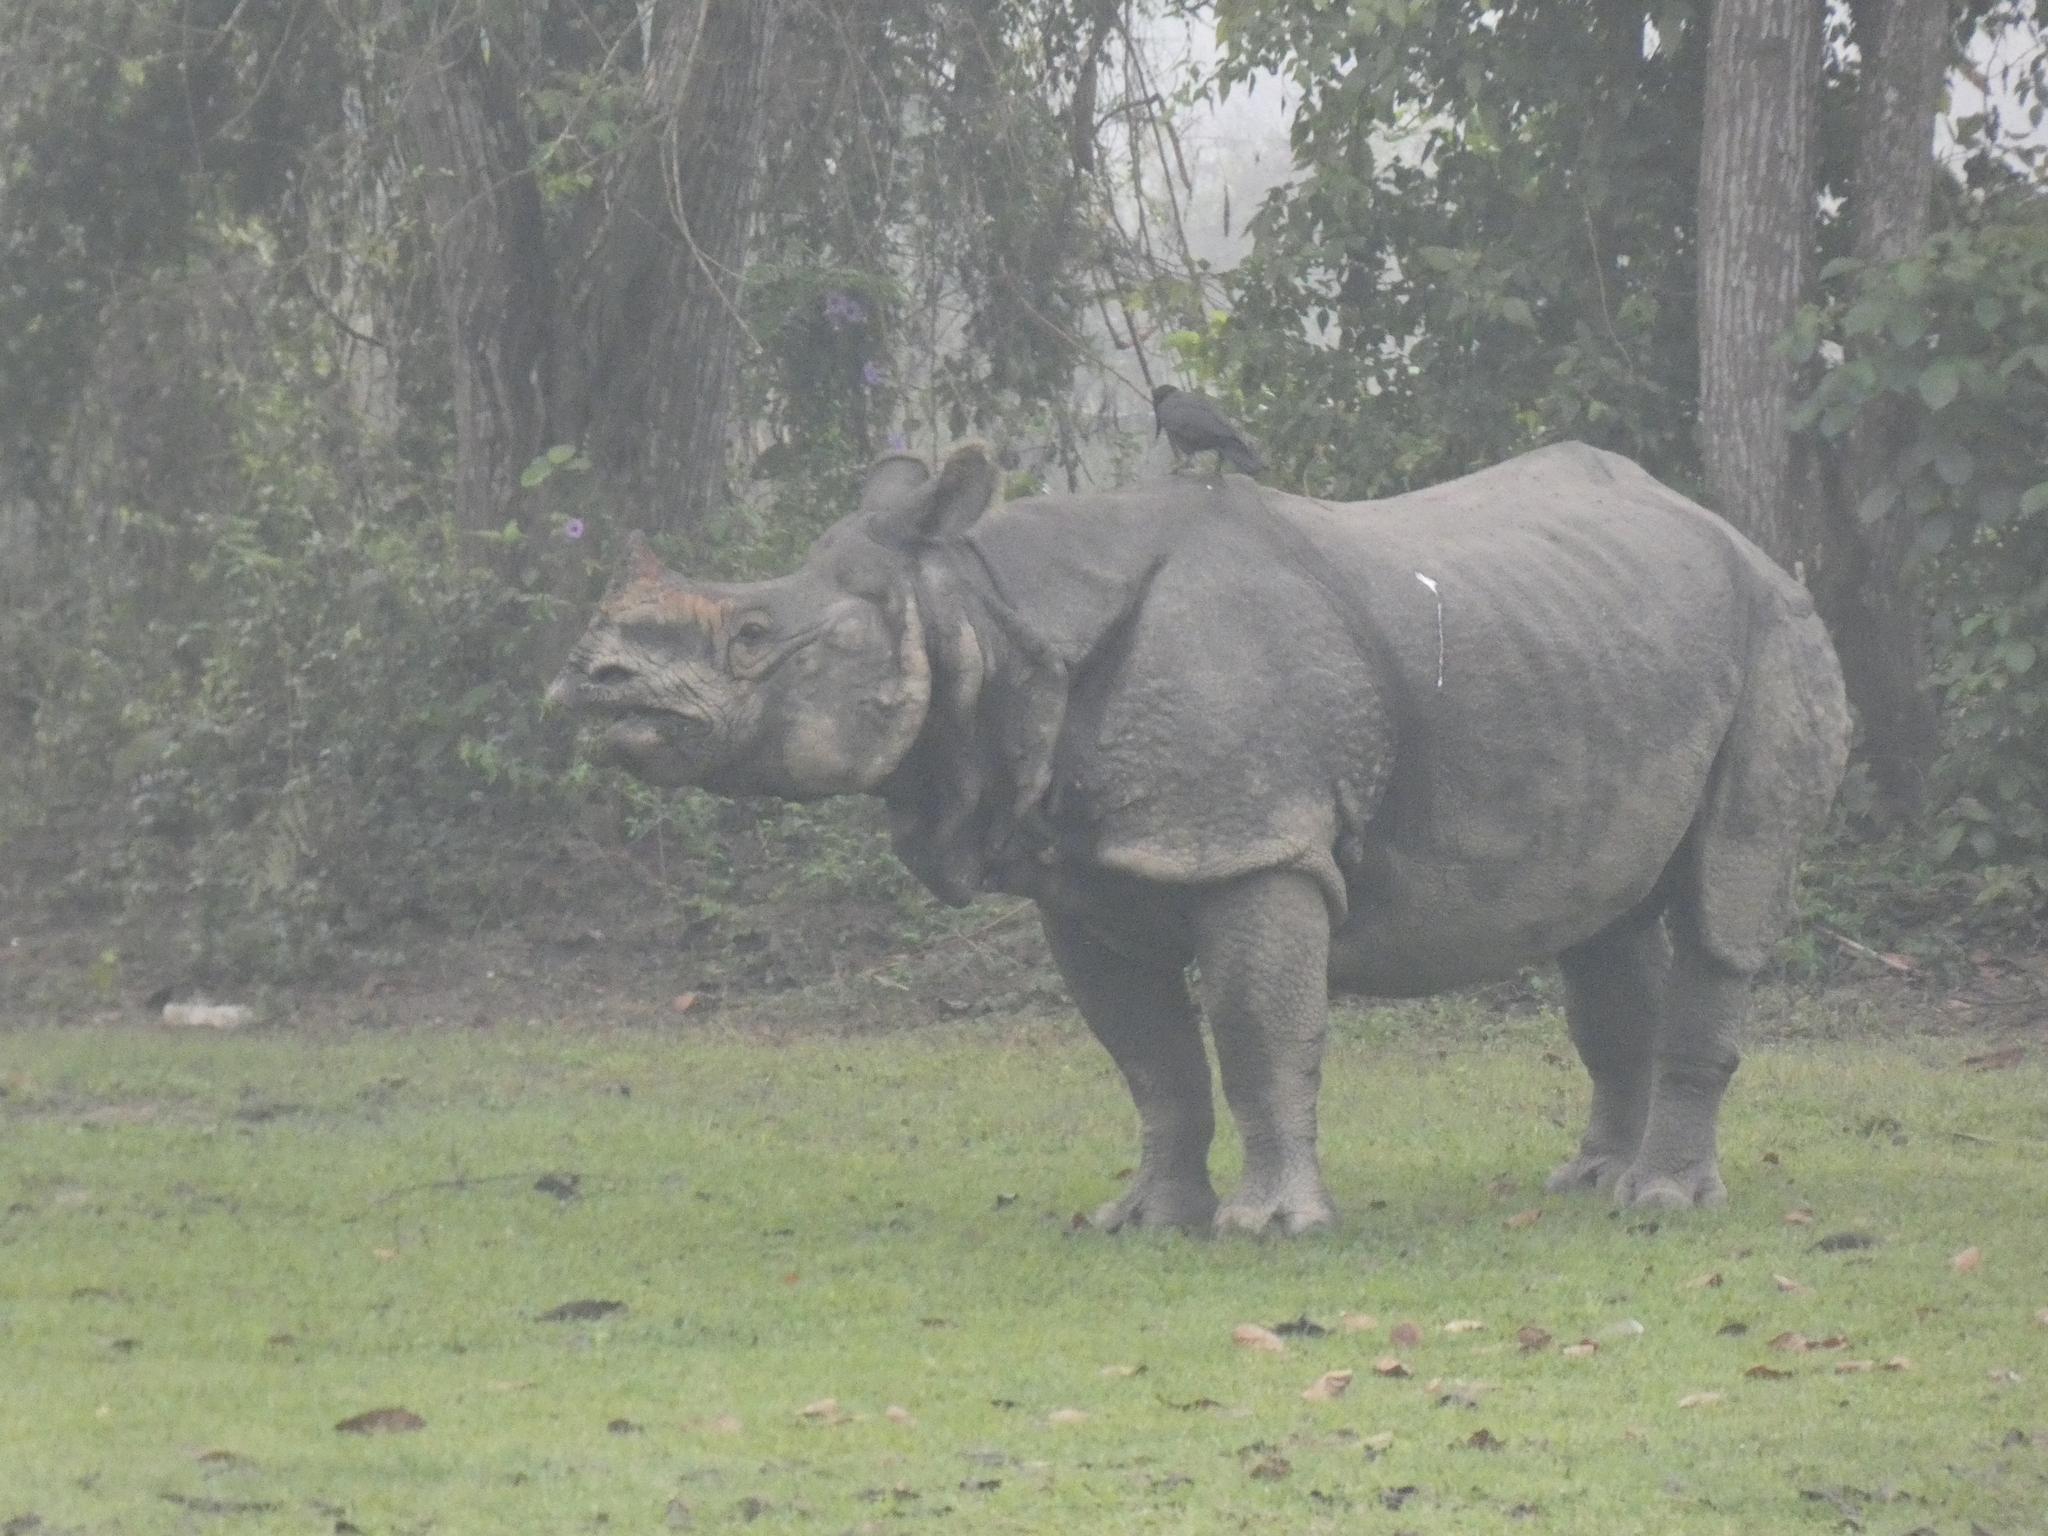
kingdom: Animalia
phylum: Chordata
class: Mammalia
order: Perissodactyla
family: Rhinocerotidae
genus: Rhinoceros
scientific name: Rhinoceros unicornis
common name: Indian rhinoceros
